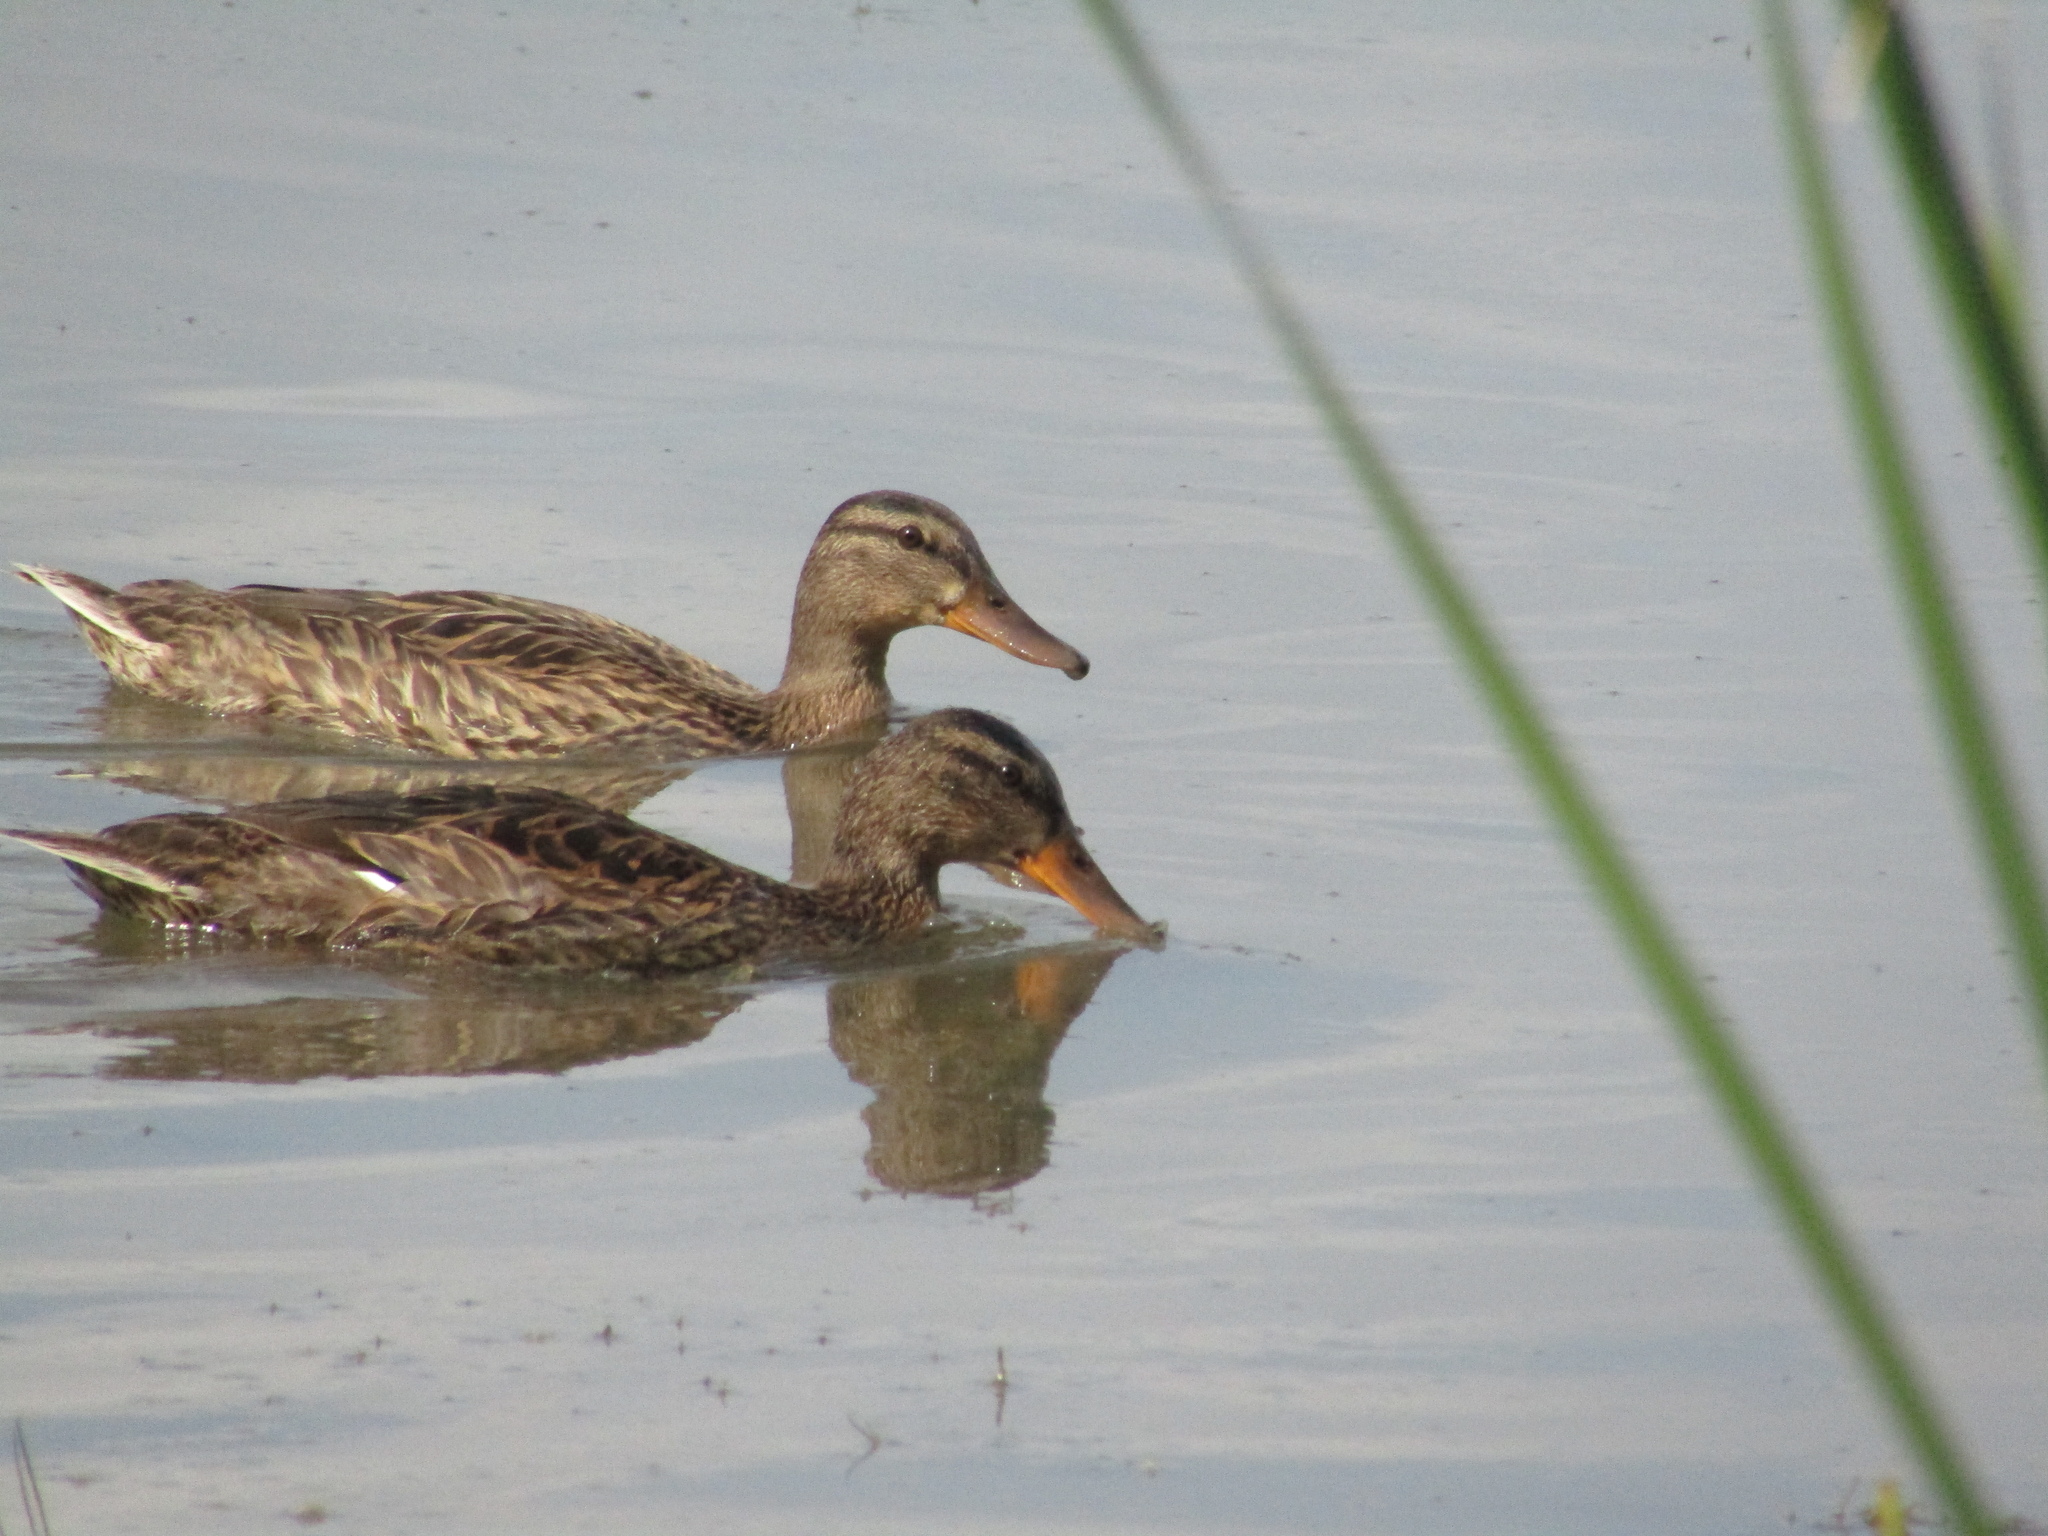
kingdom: Animalia
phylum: Chordata
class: Aves
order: Anseriformes
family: Anatidae
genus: Anas
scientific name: Anas platyrhynchos
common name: Mallard
